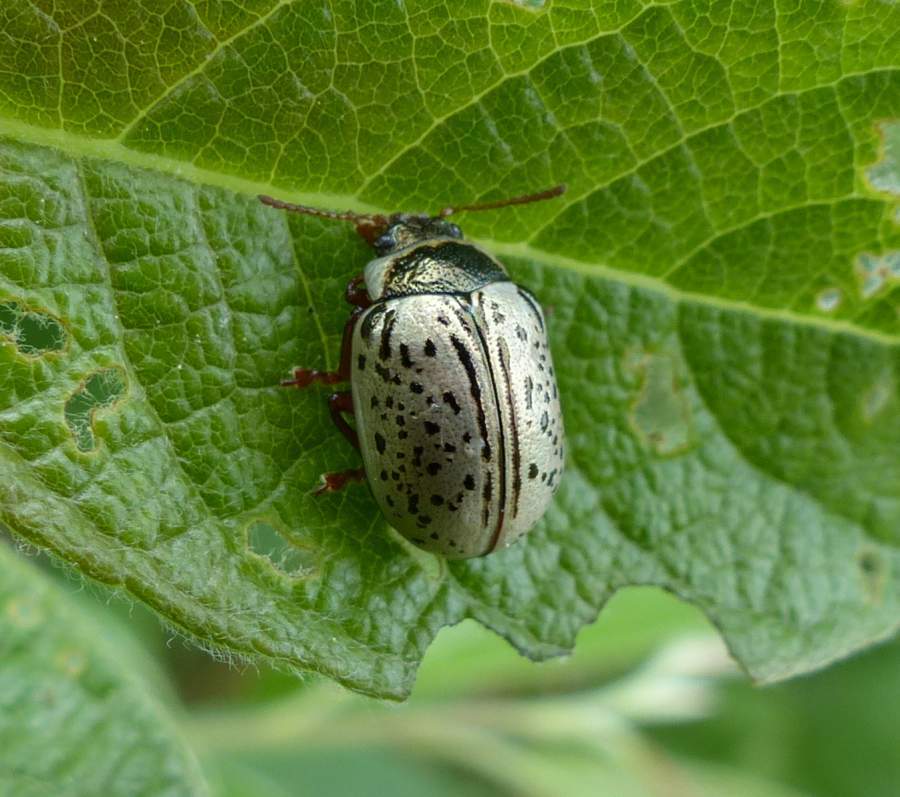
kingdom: Animalia
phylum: Arthropoda
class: Insecta
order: Coleoptera
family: Chrysomelidae
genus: Calligrapha
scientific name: Calligrapha multipunctata
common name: Common willow calligrapher beetle
